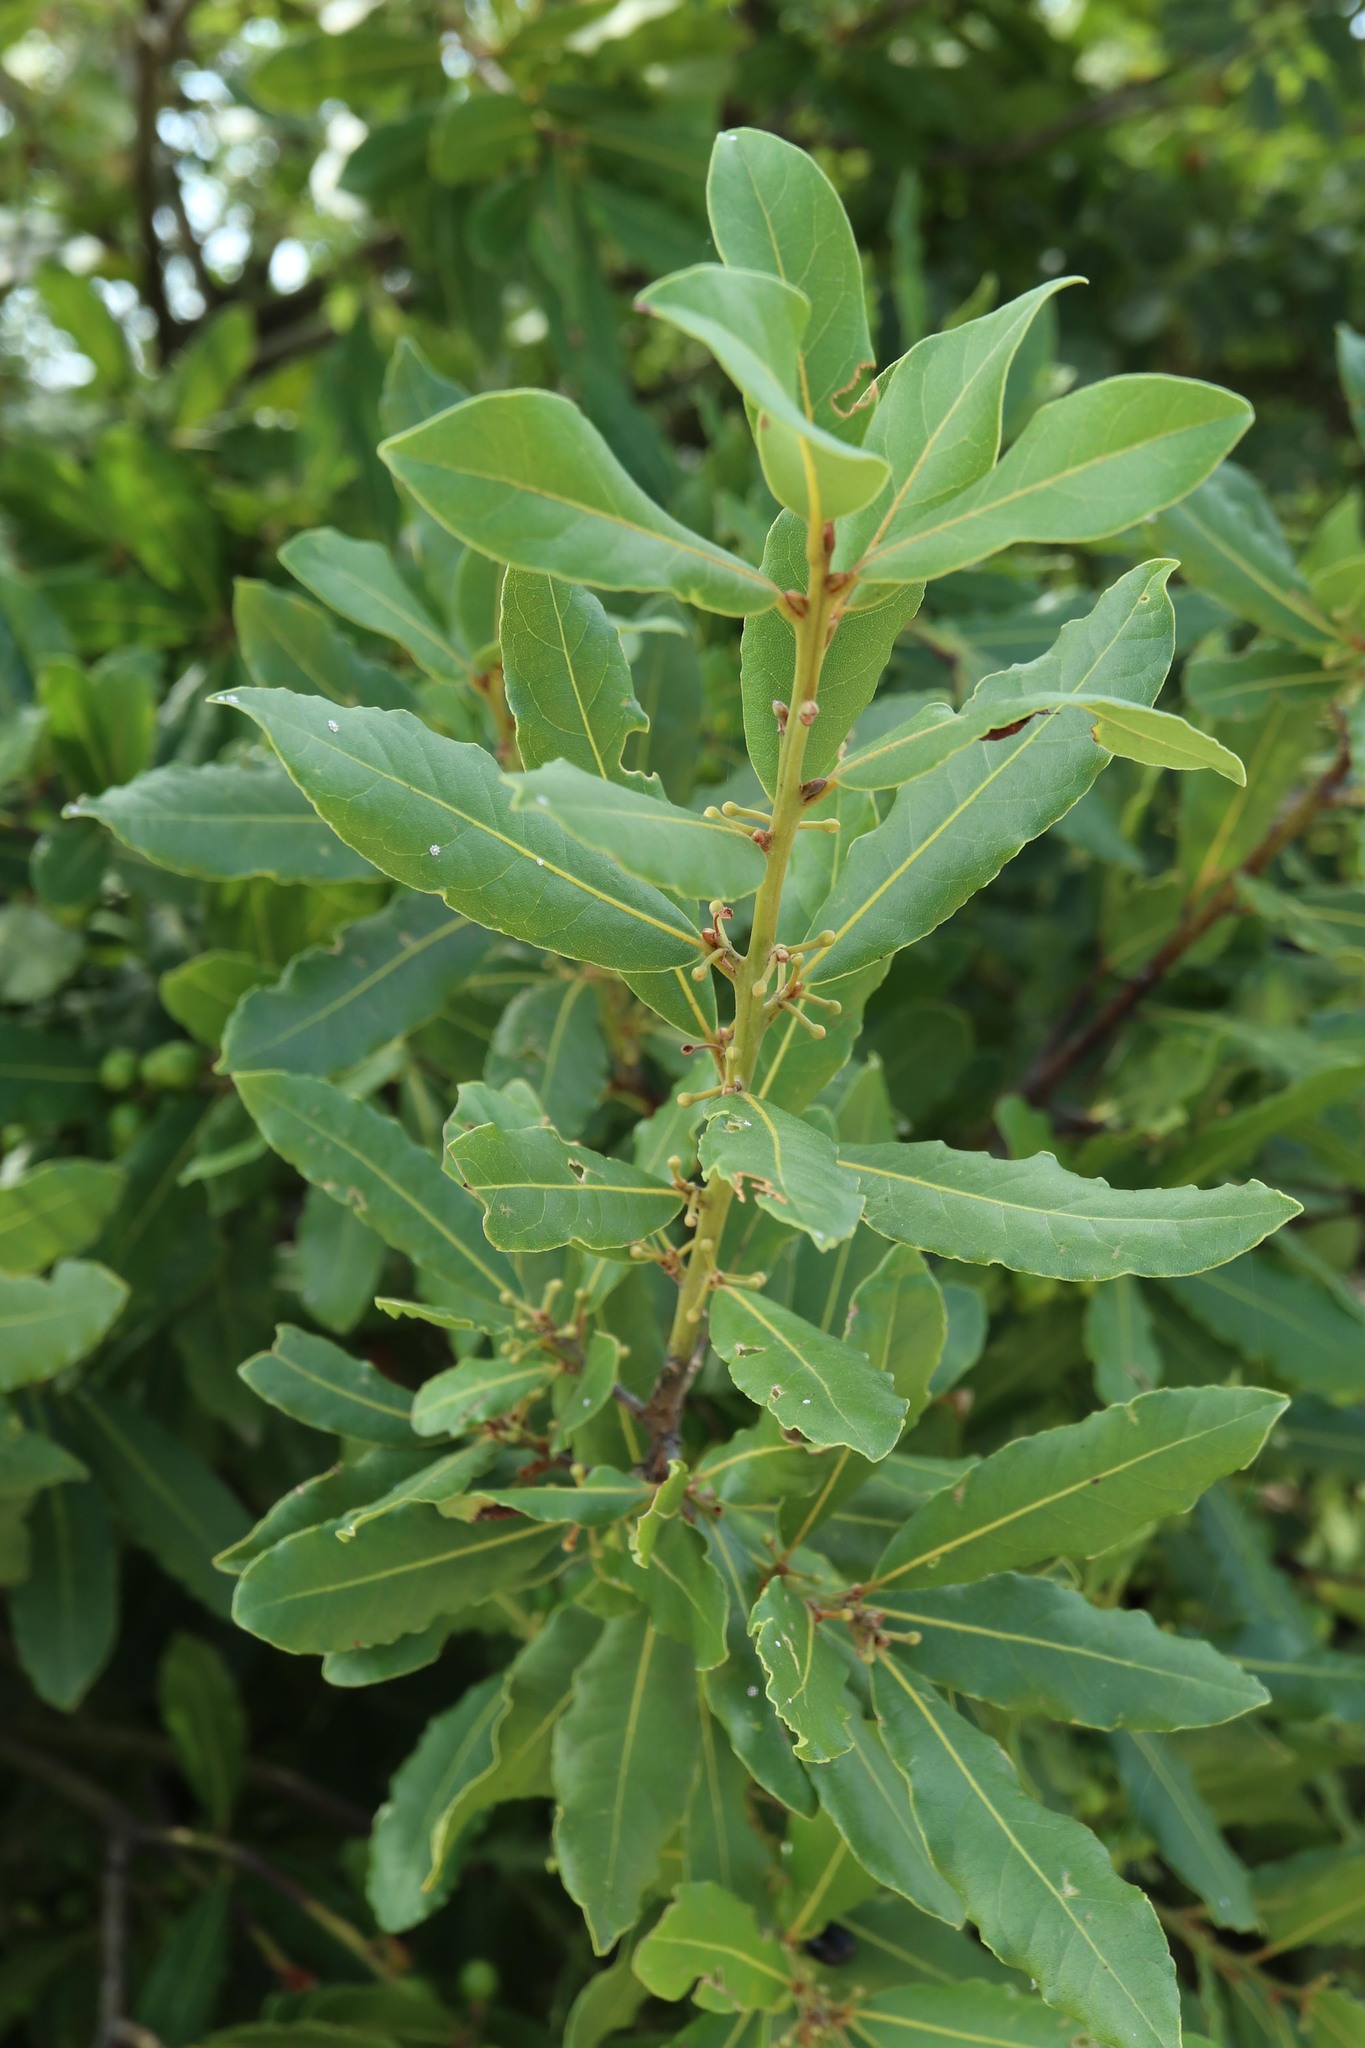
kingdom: Plantae
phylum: Tracheophyta
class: Magnoliopsida
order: Laurales
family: Lauraceae
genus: Laurus
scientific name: Laurus nobilis
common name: Bay
